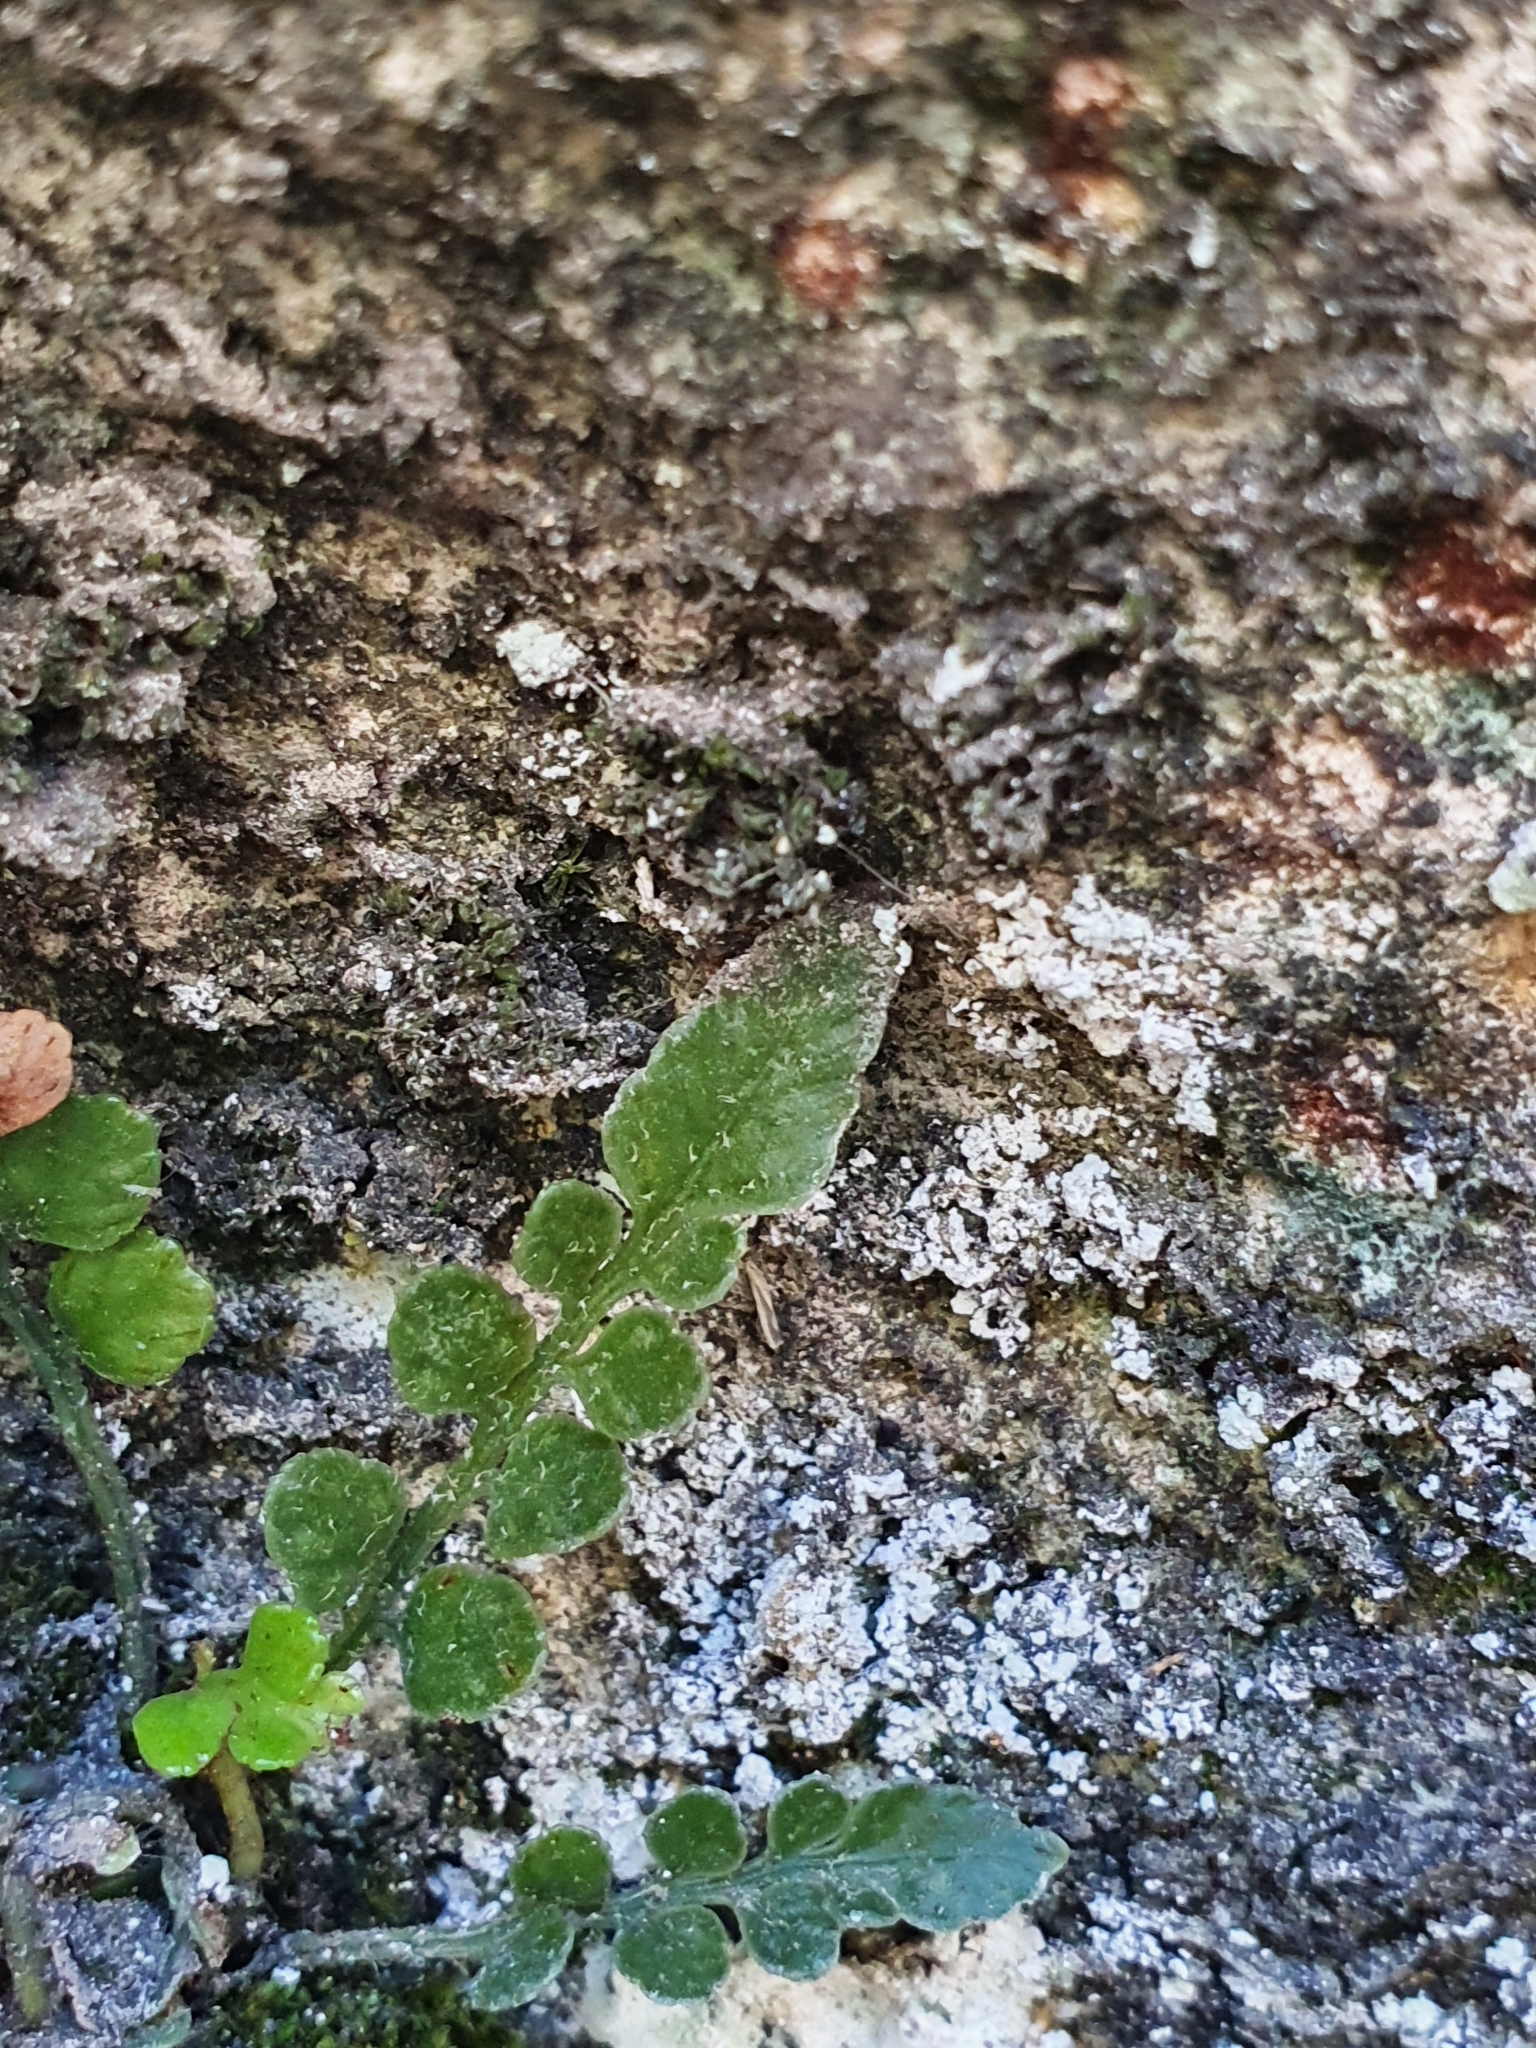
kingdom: Plantae
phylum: Tracheophyta
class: Polypodiopsida
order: Polypodiales
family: Aspleniaceae
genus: Asplenium
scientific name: Asplenium lyallii
